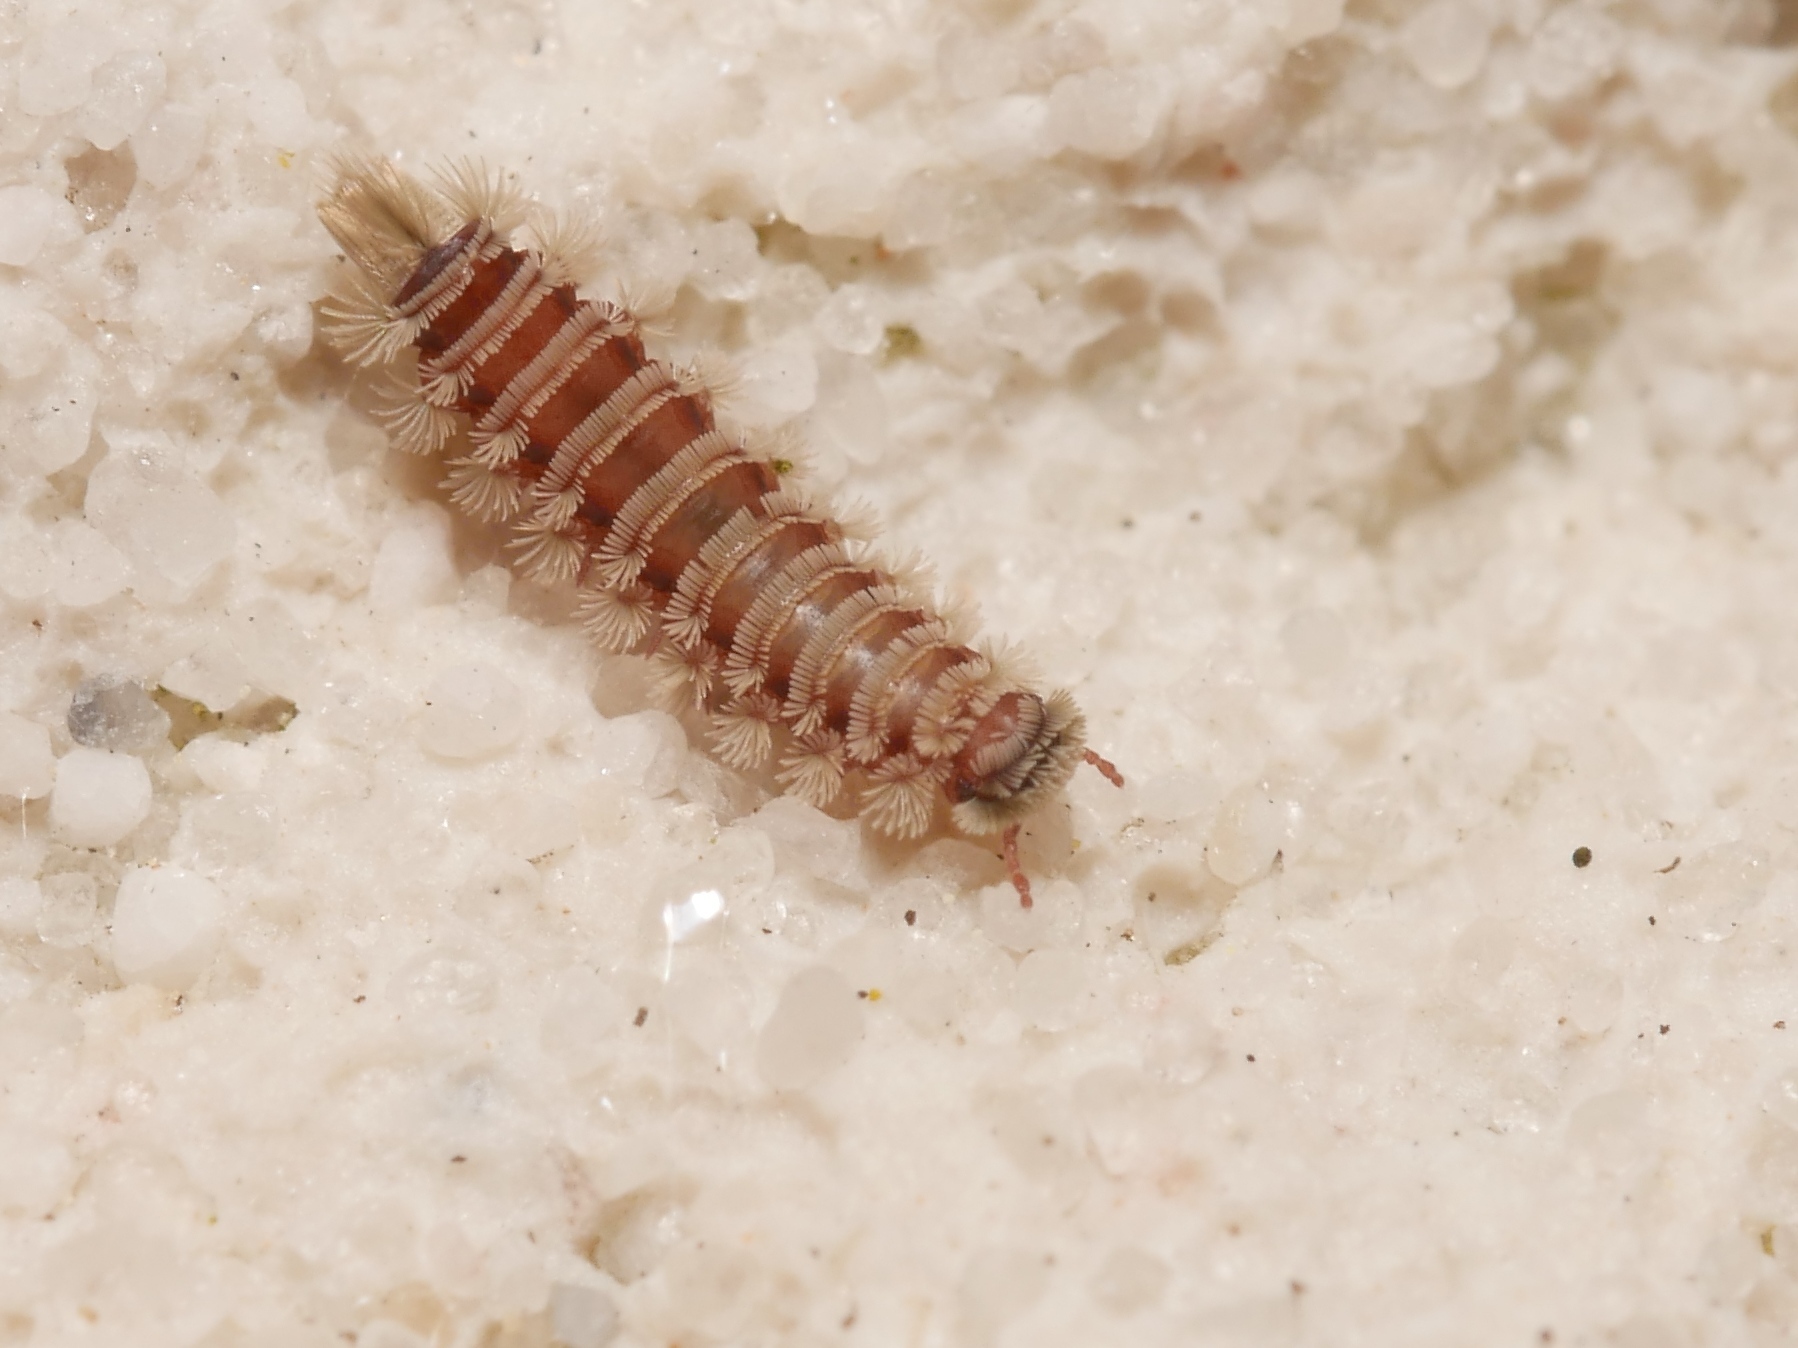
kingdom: Animalia
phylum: Arthropoda
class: Diplopoda
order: Polyxenida
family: Polyxenidae
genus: Polyxenus
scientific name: Polyxenus lagurus
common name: Bristly millipede
